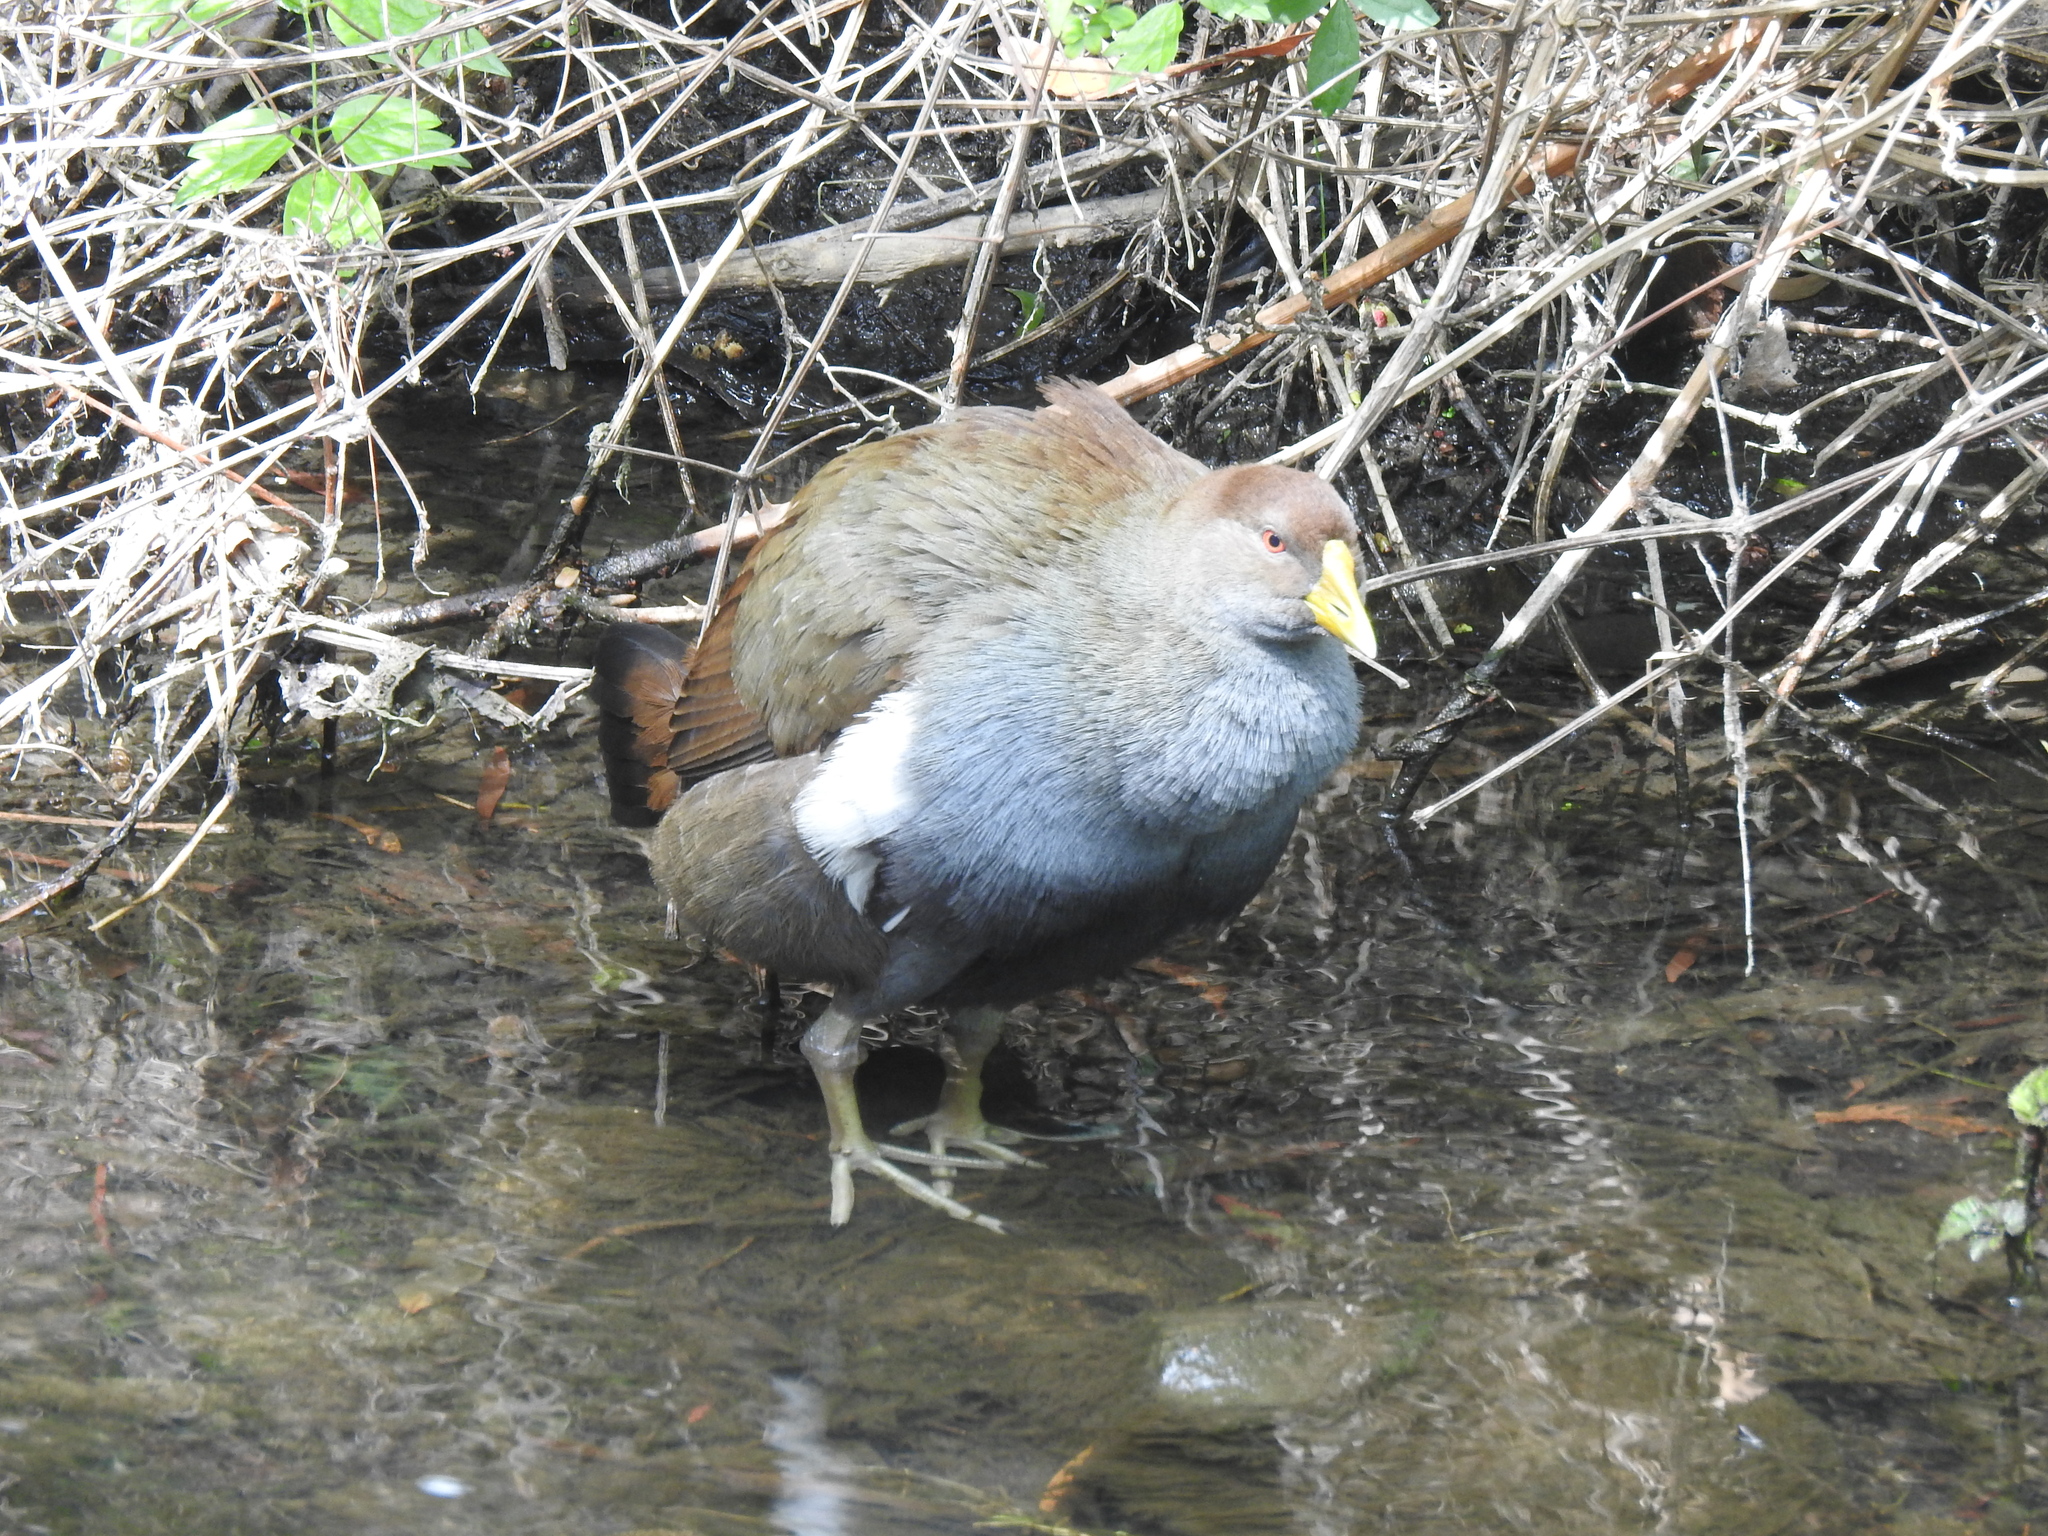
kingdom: Animalia
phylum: Chordata
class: Aves
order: Gruiformes
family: Rallidae
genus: Gallinula
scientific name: Gallinula mortierii
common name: Tasmanian nativehen
